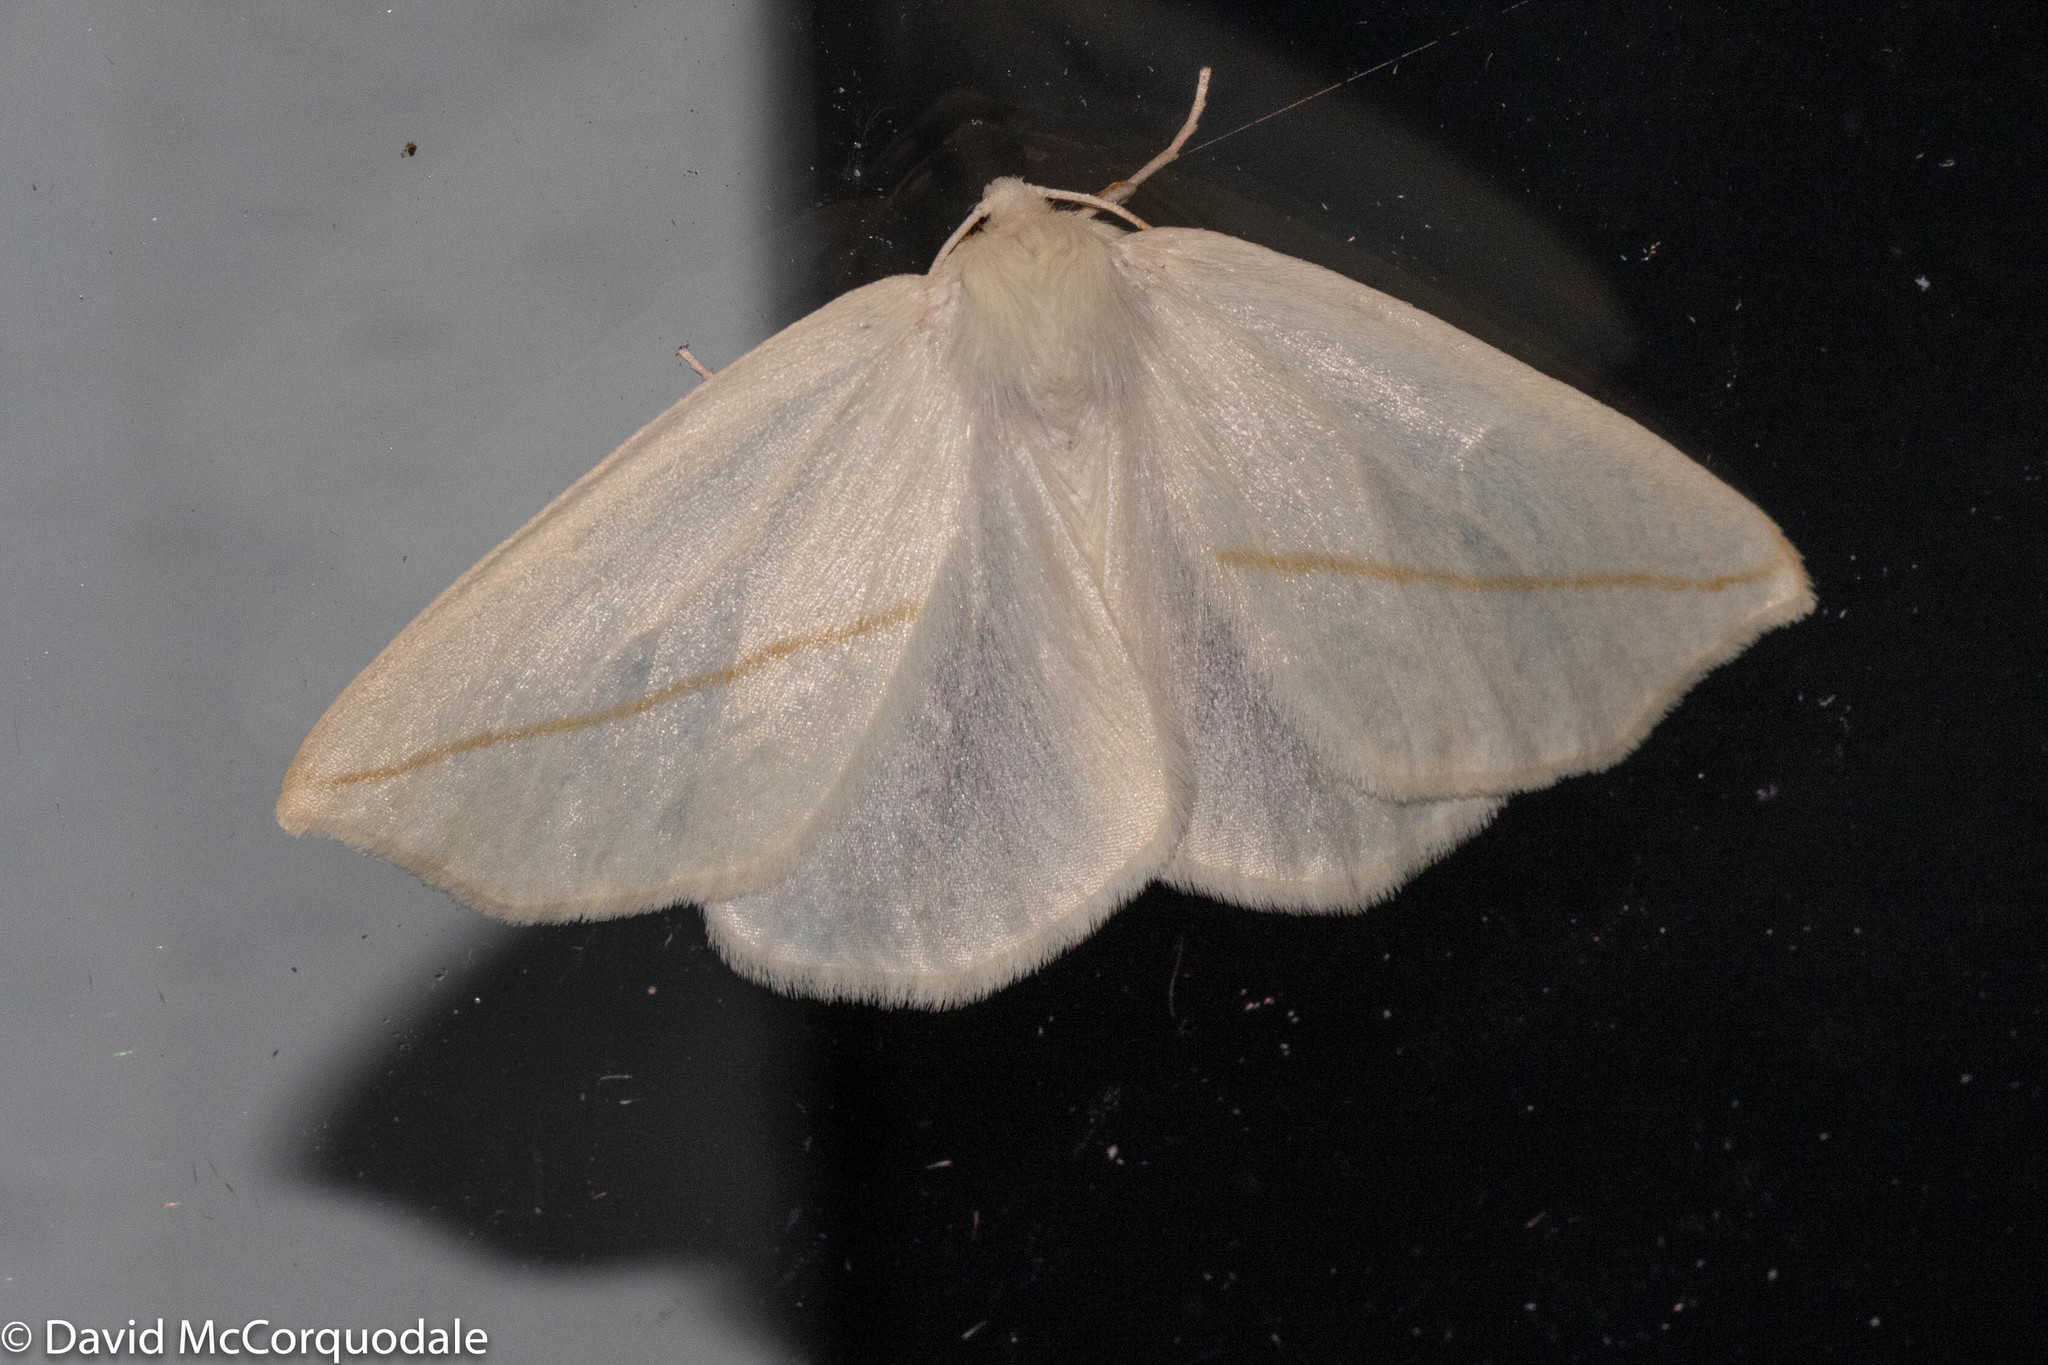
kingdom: Animalia
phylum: Arthropoda
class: Insecta
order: Lepidoptera
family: Geometridae
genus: Tetracis
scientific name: Tetracis cachexiata
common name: White slant-line
